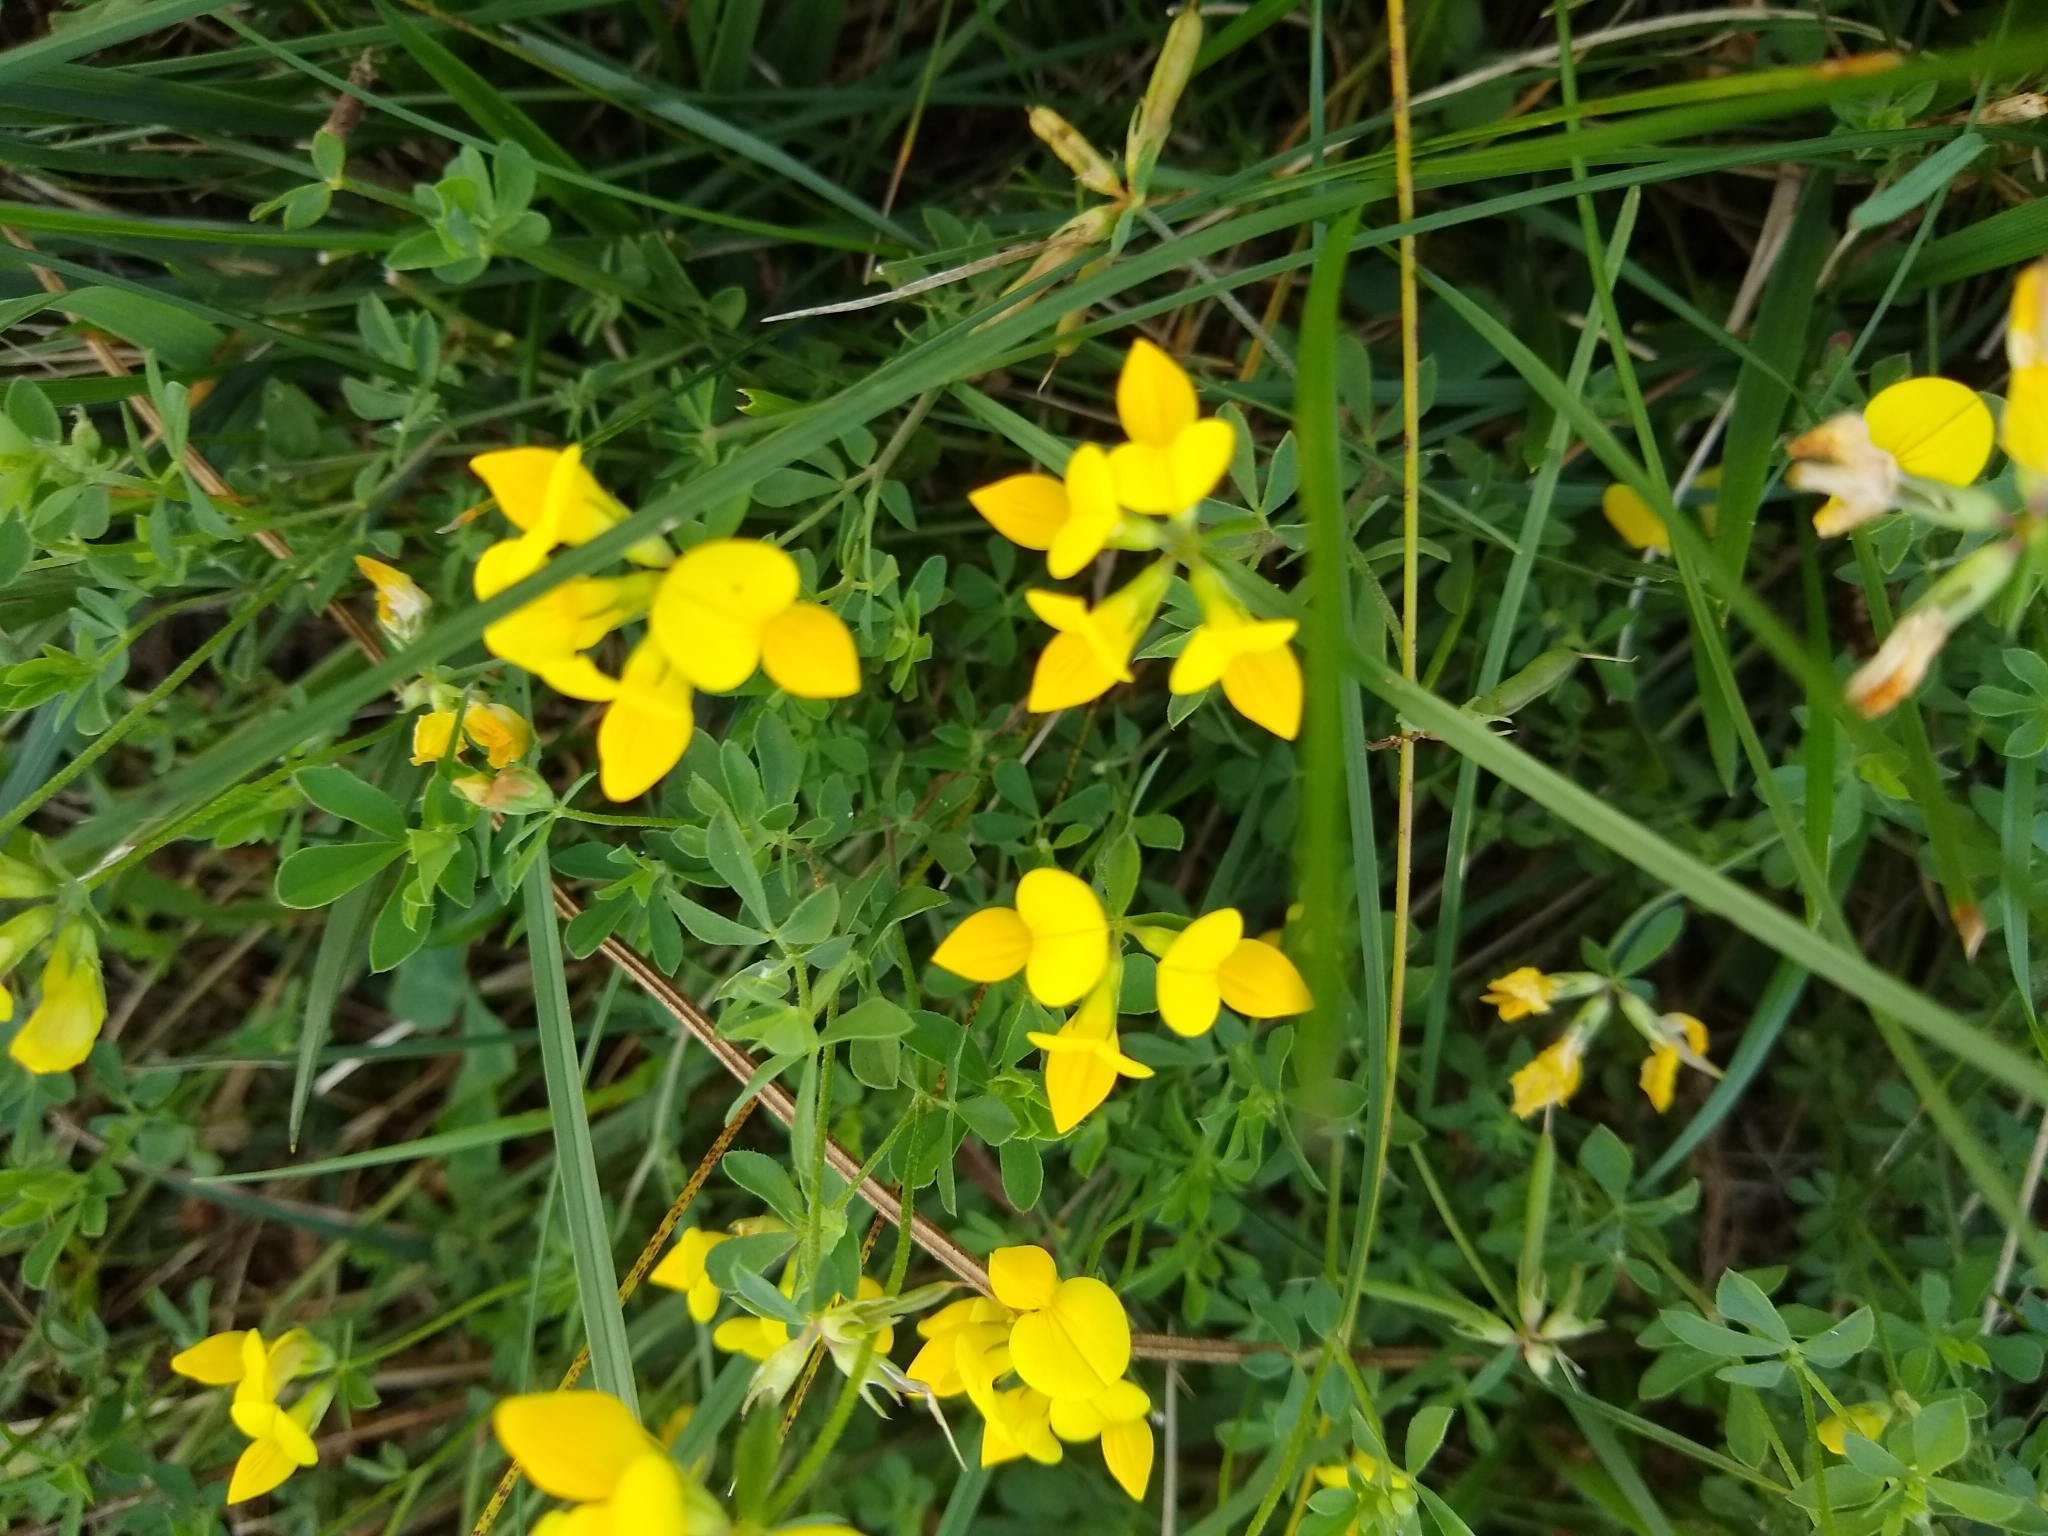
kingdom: Plantae
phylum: Tracheophyta
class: Magnoliopsida
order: Fabales
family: Fabaceae
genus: Lotus
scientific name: Lotus corniculatus
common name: Common bird's-foot-trefoil
